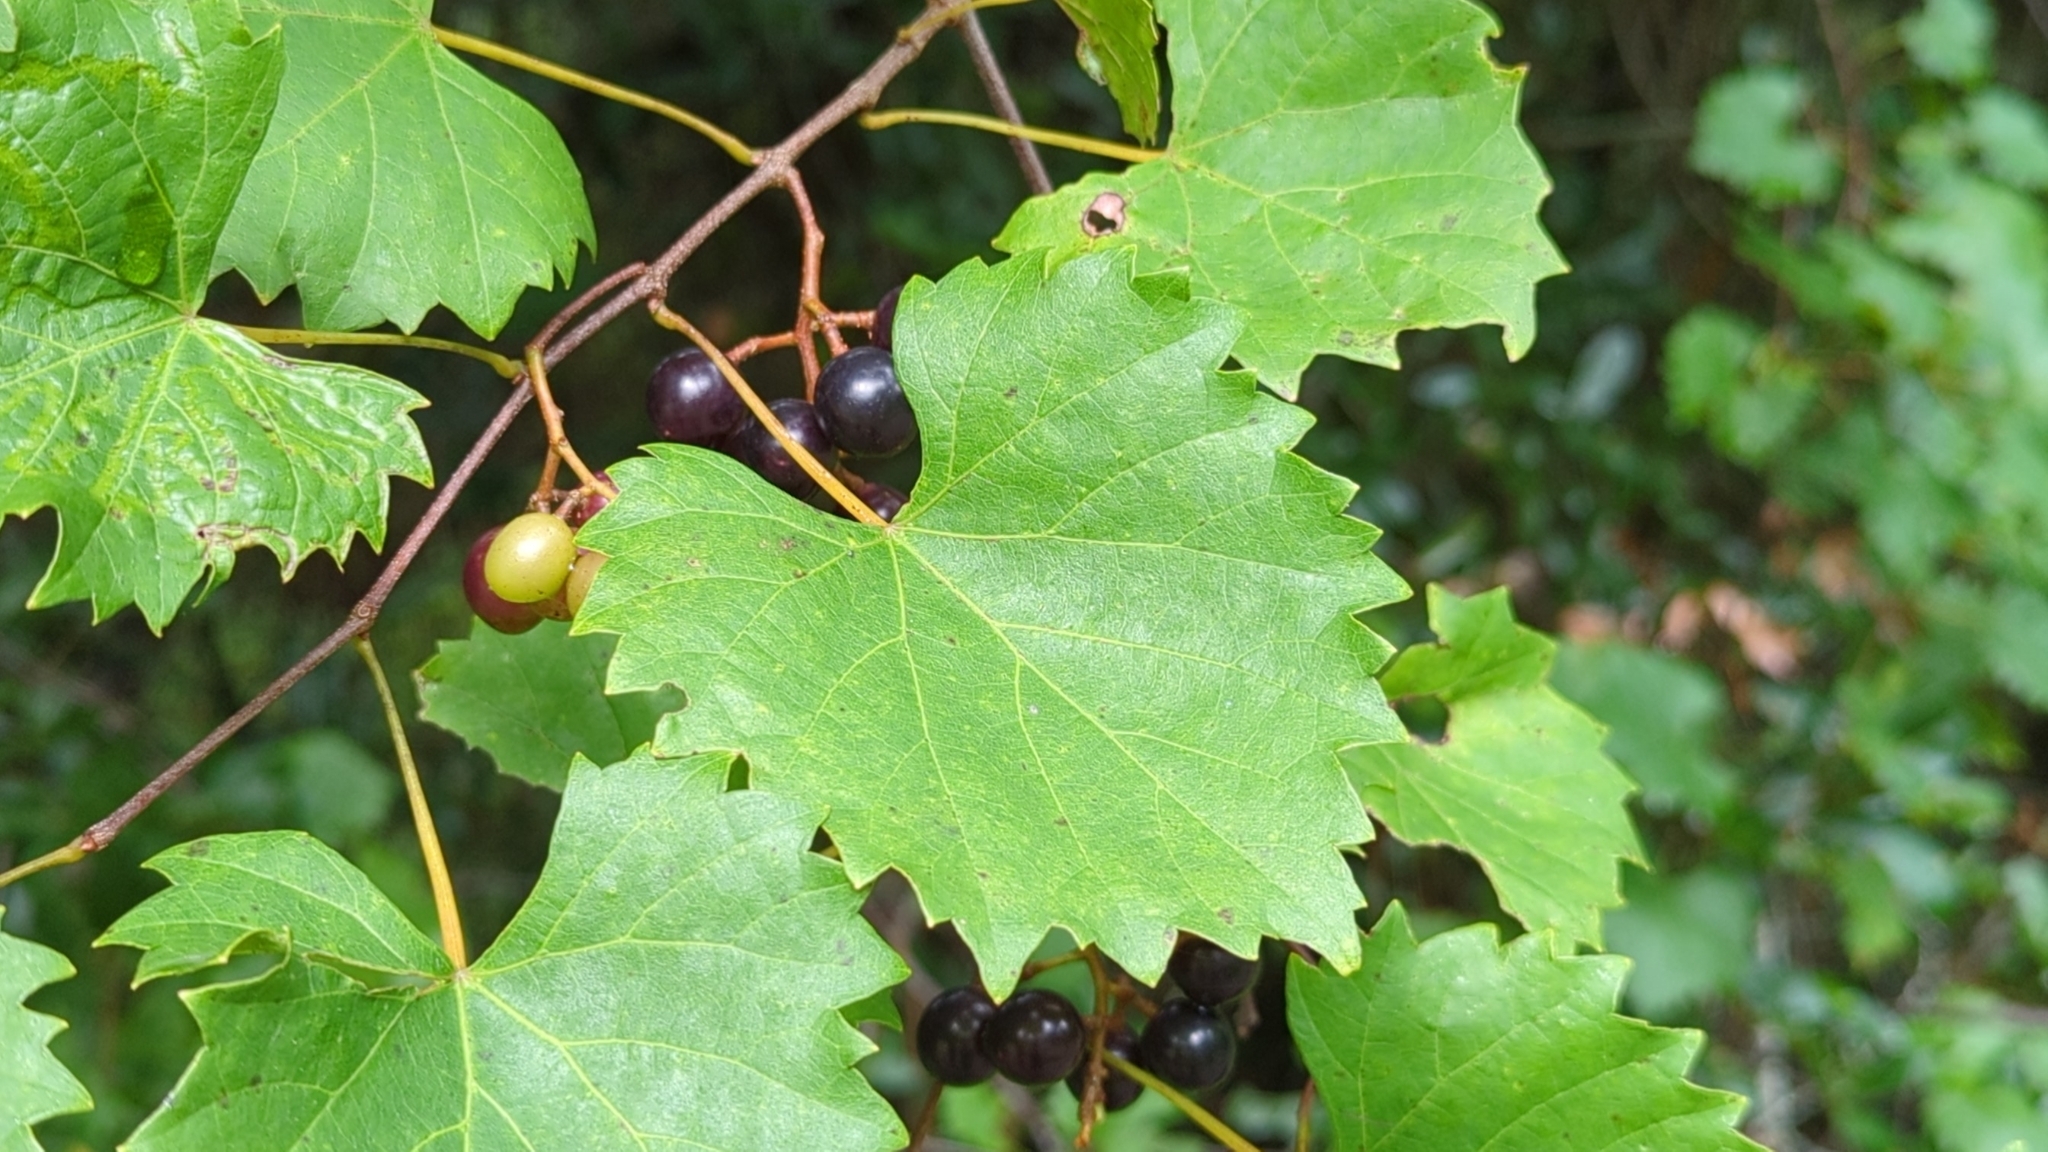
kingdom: Plantae
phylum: Tracheophyta
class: Magnoliopsida
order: Vitales
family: Vitaceae
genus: Vitis
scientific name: Vitis rotundifolia
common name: Muscadine grape
